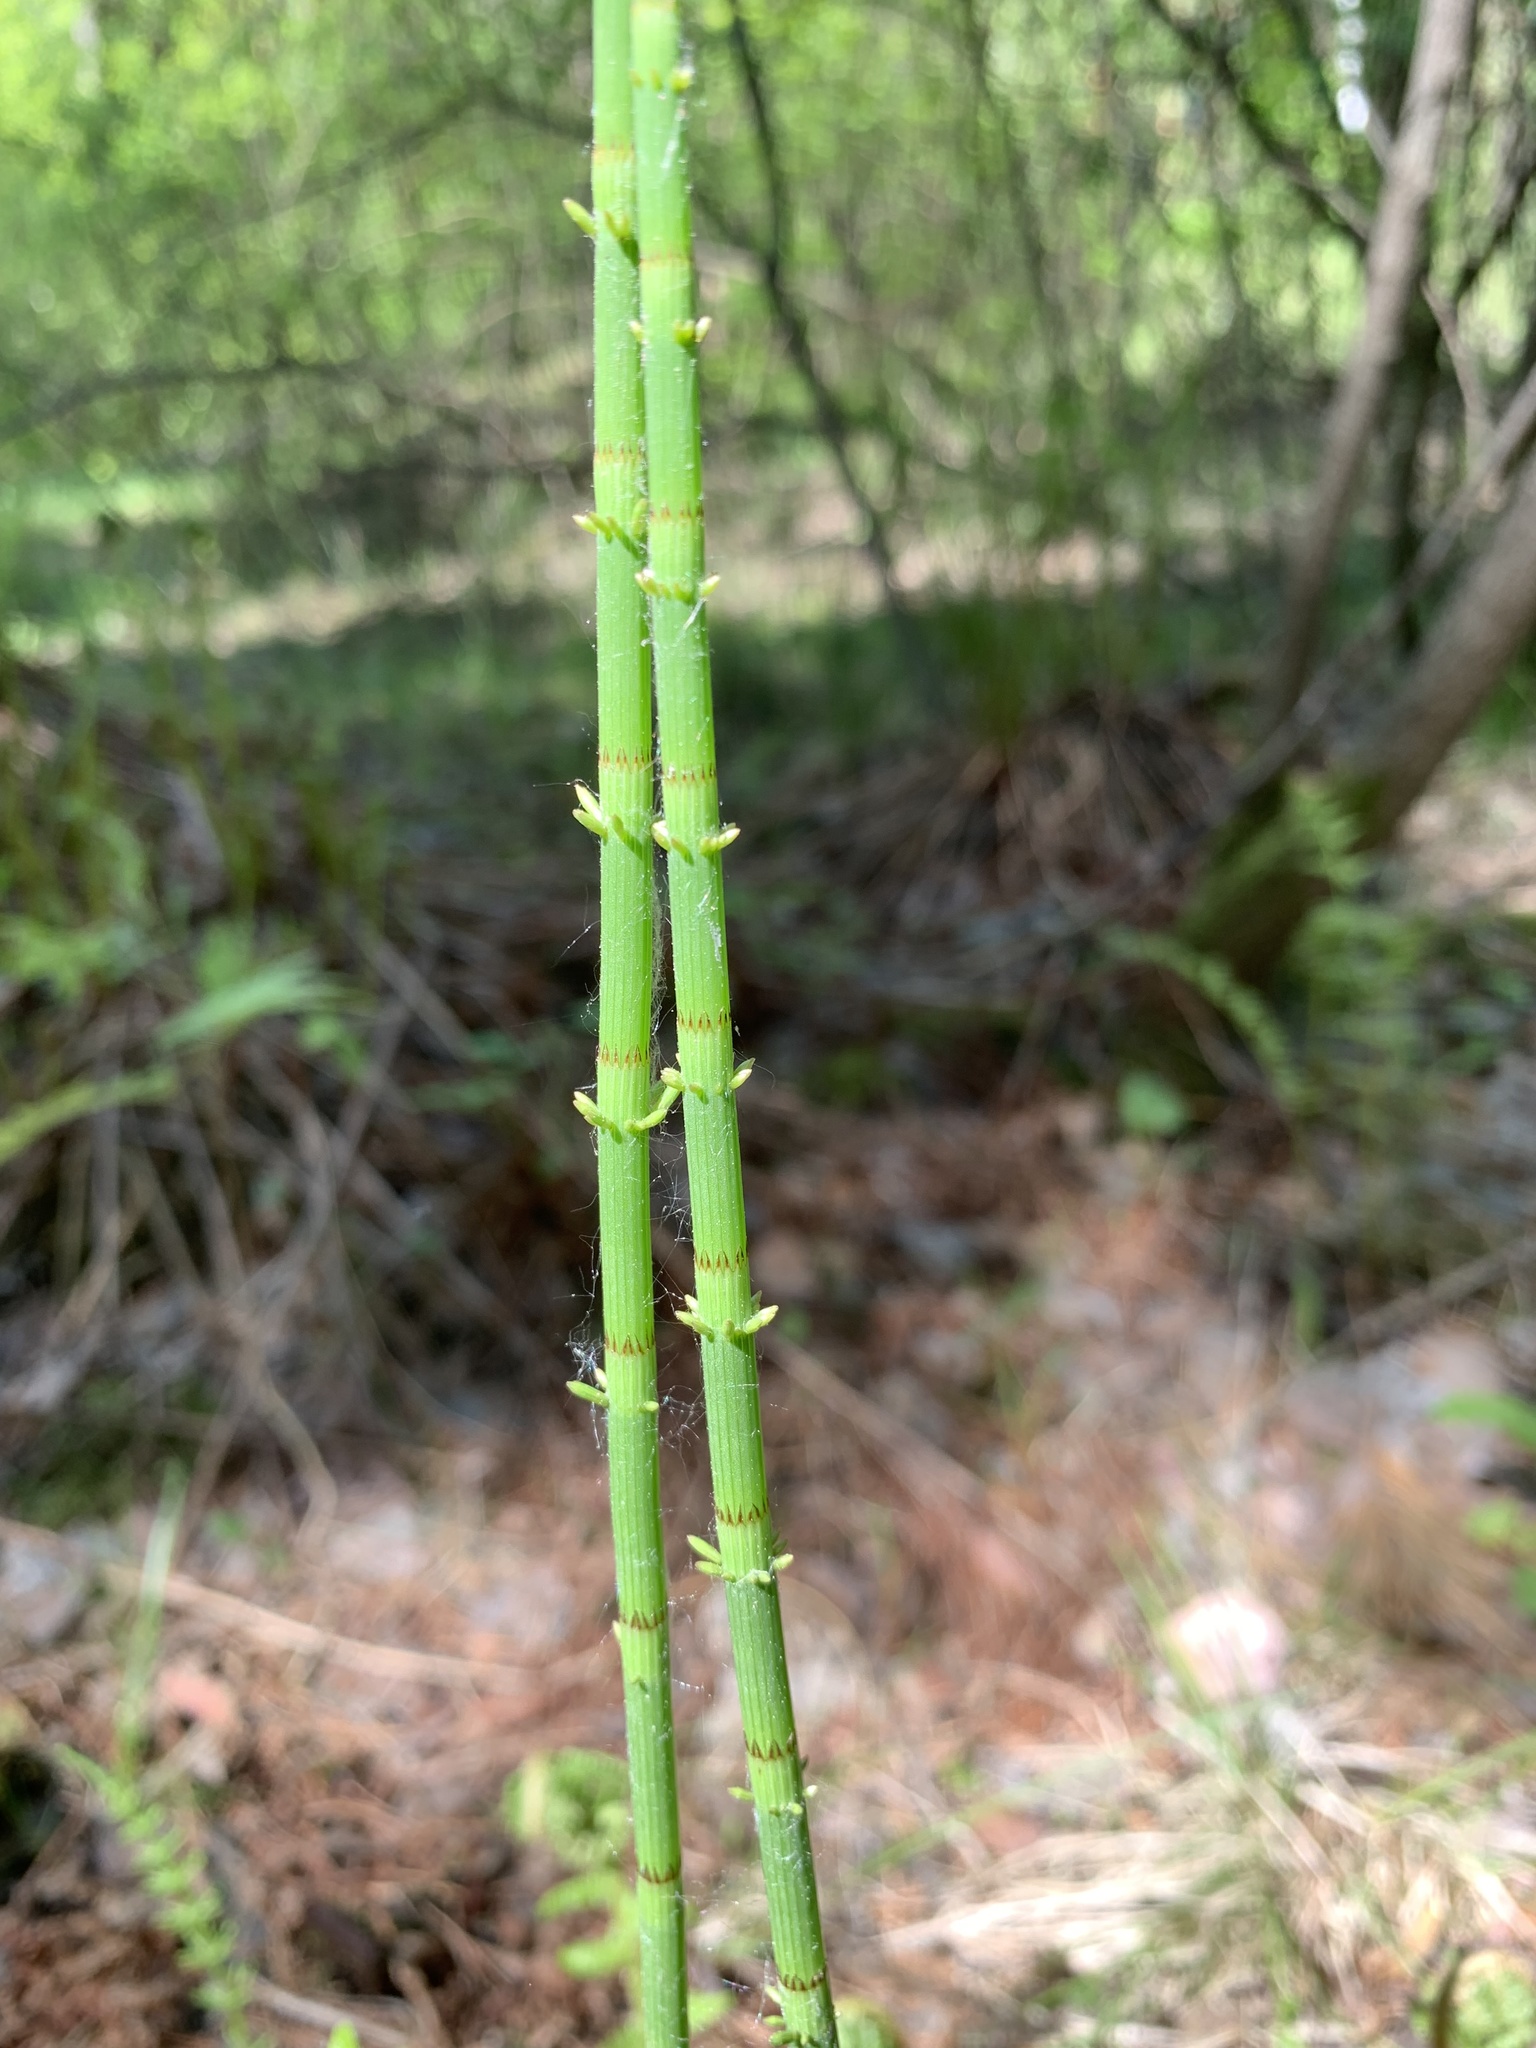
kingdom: Plantae
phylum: Tracheophyta
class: Polypodiopsida
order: Equisetales
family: Equisetaceae
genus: Equisetum
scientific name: Equisetum fluviatile
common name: Water horsetail
